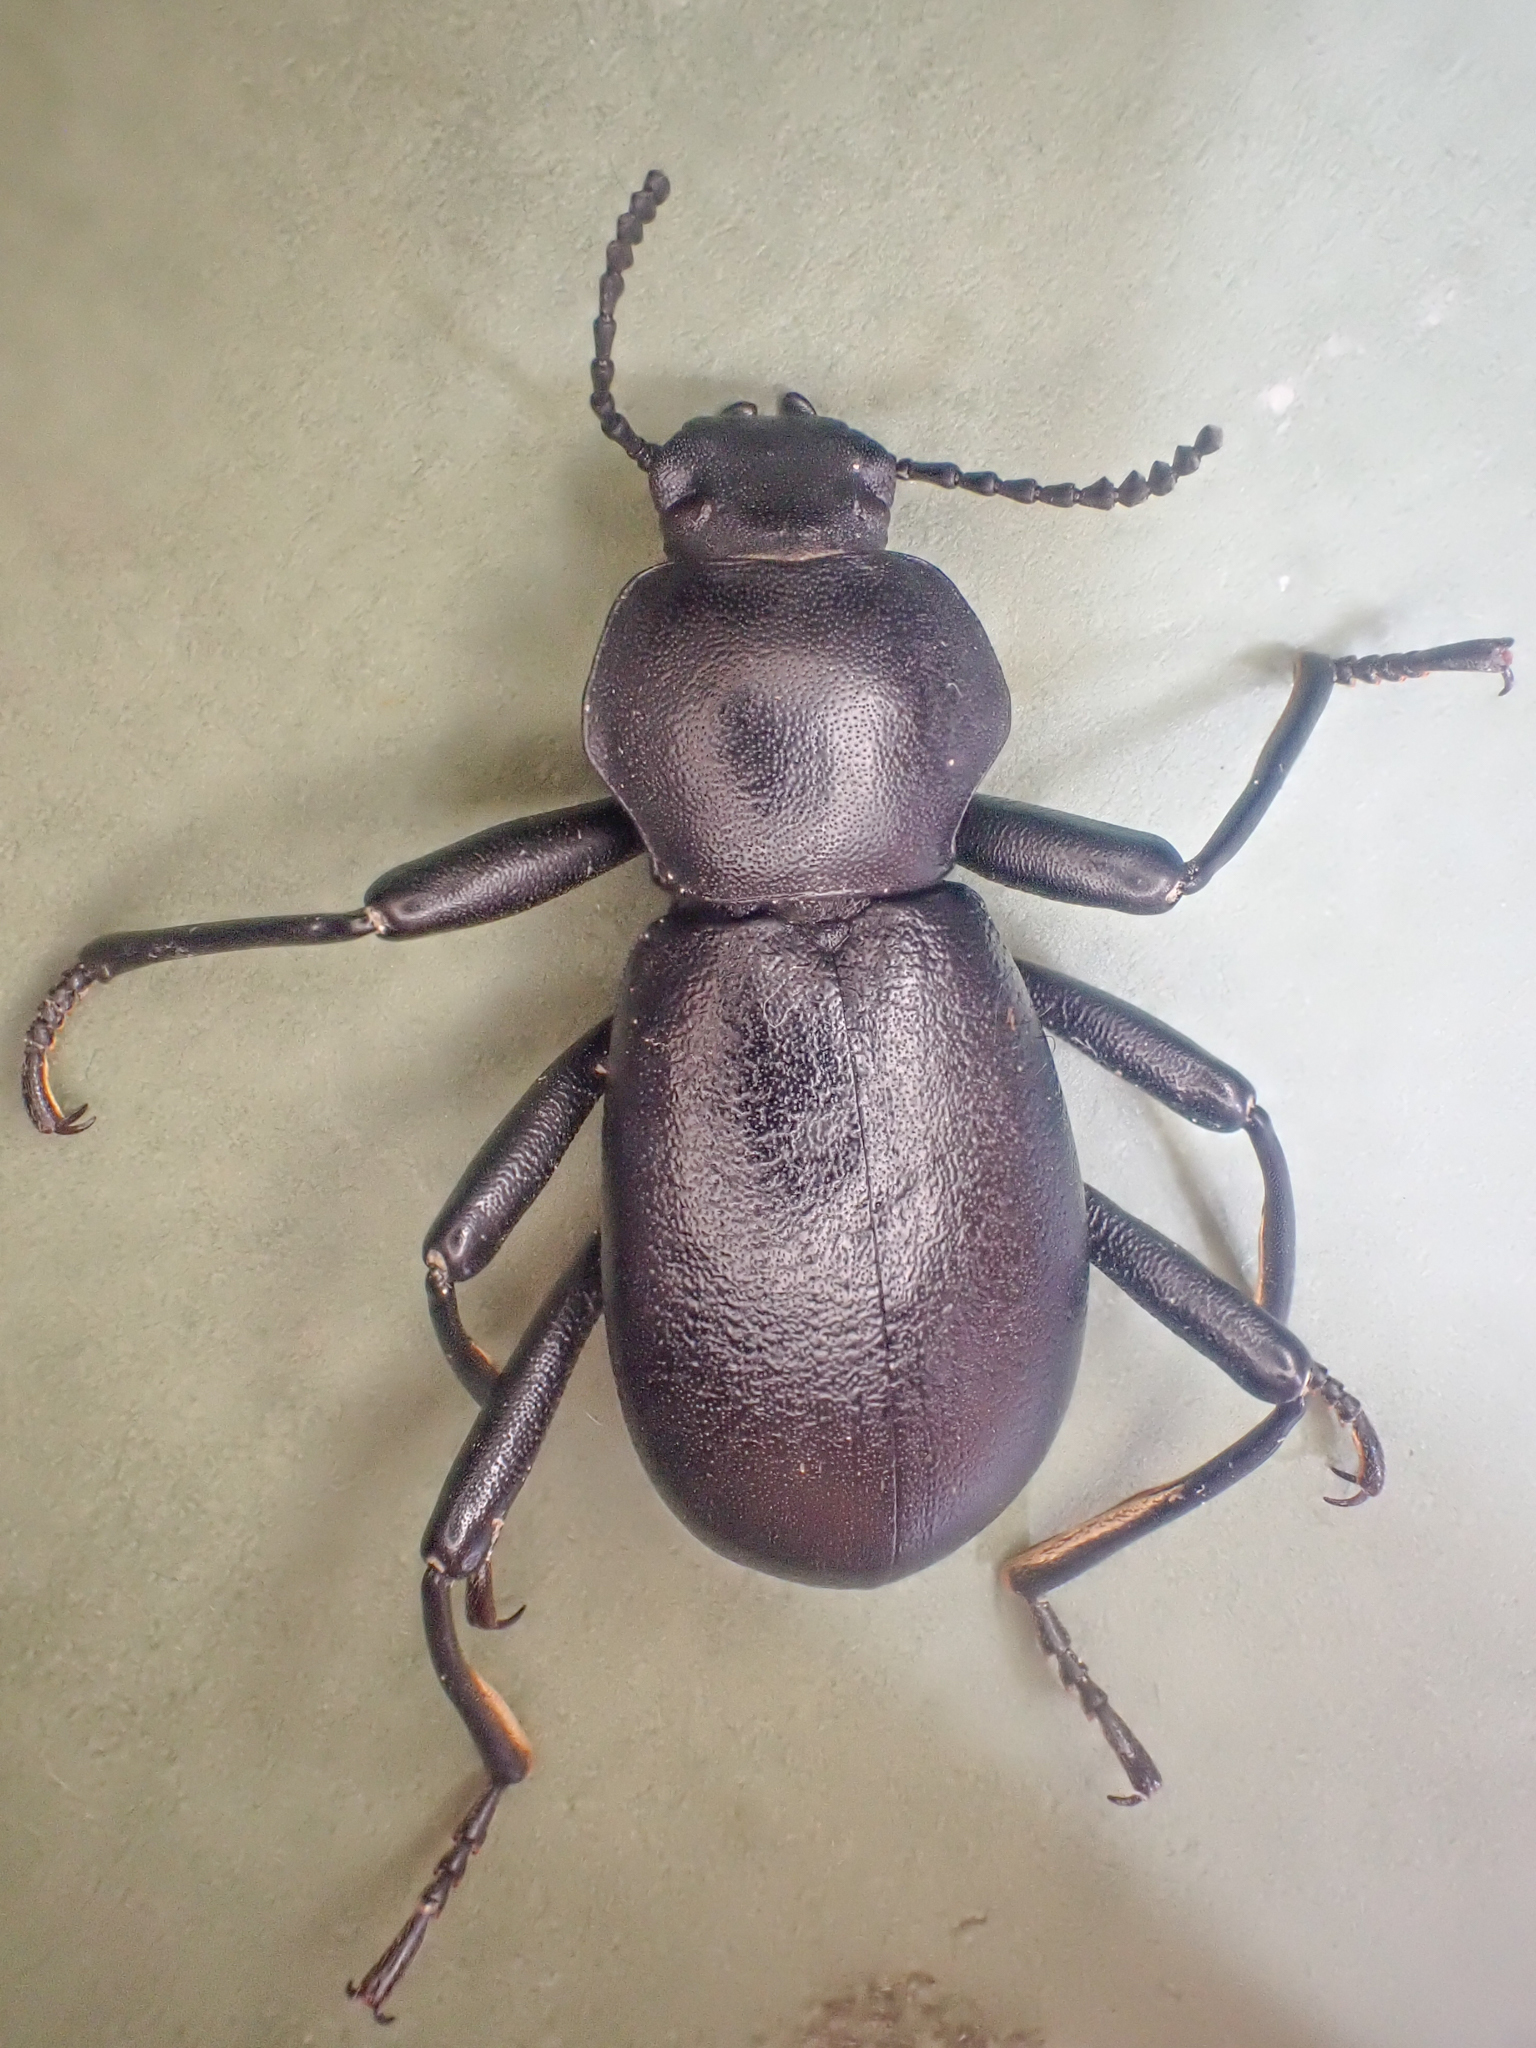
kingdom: Animalia
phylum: Arthropoda
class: Insecta
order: Coleoptera
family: Tenebrionidae
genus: Coelocnemis
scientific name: Coelocnemis dilaticollis
